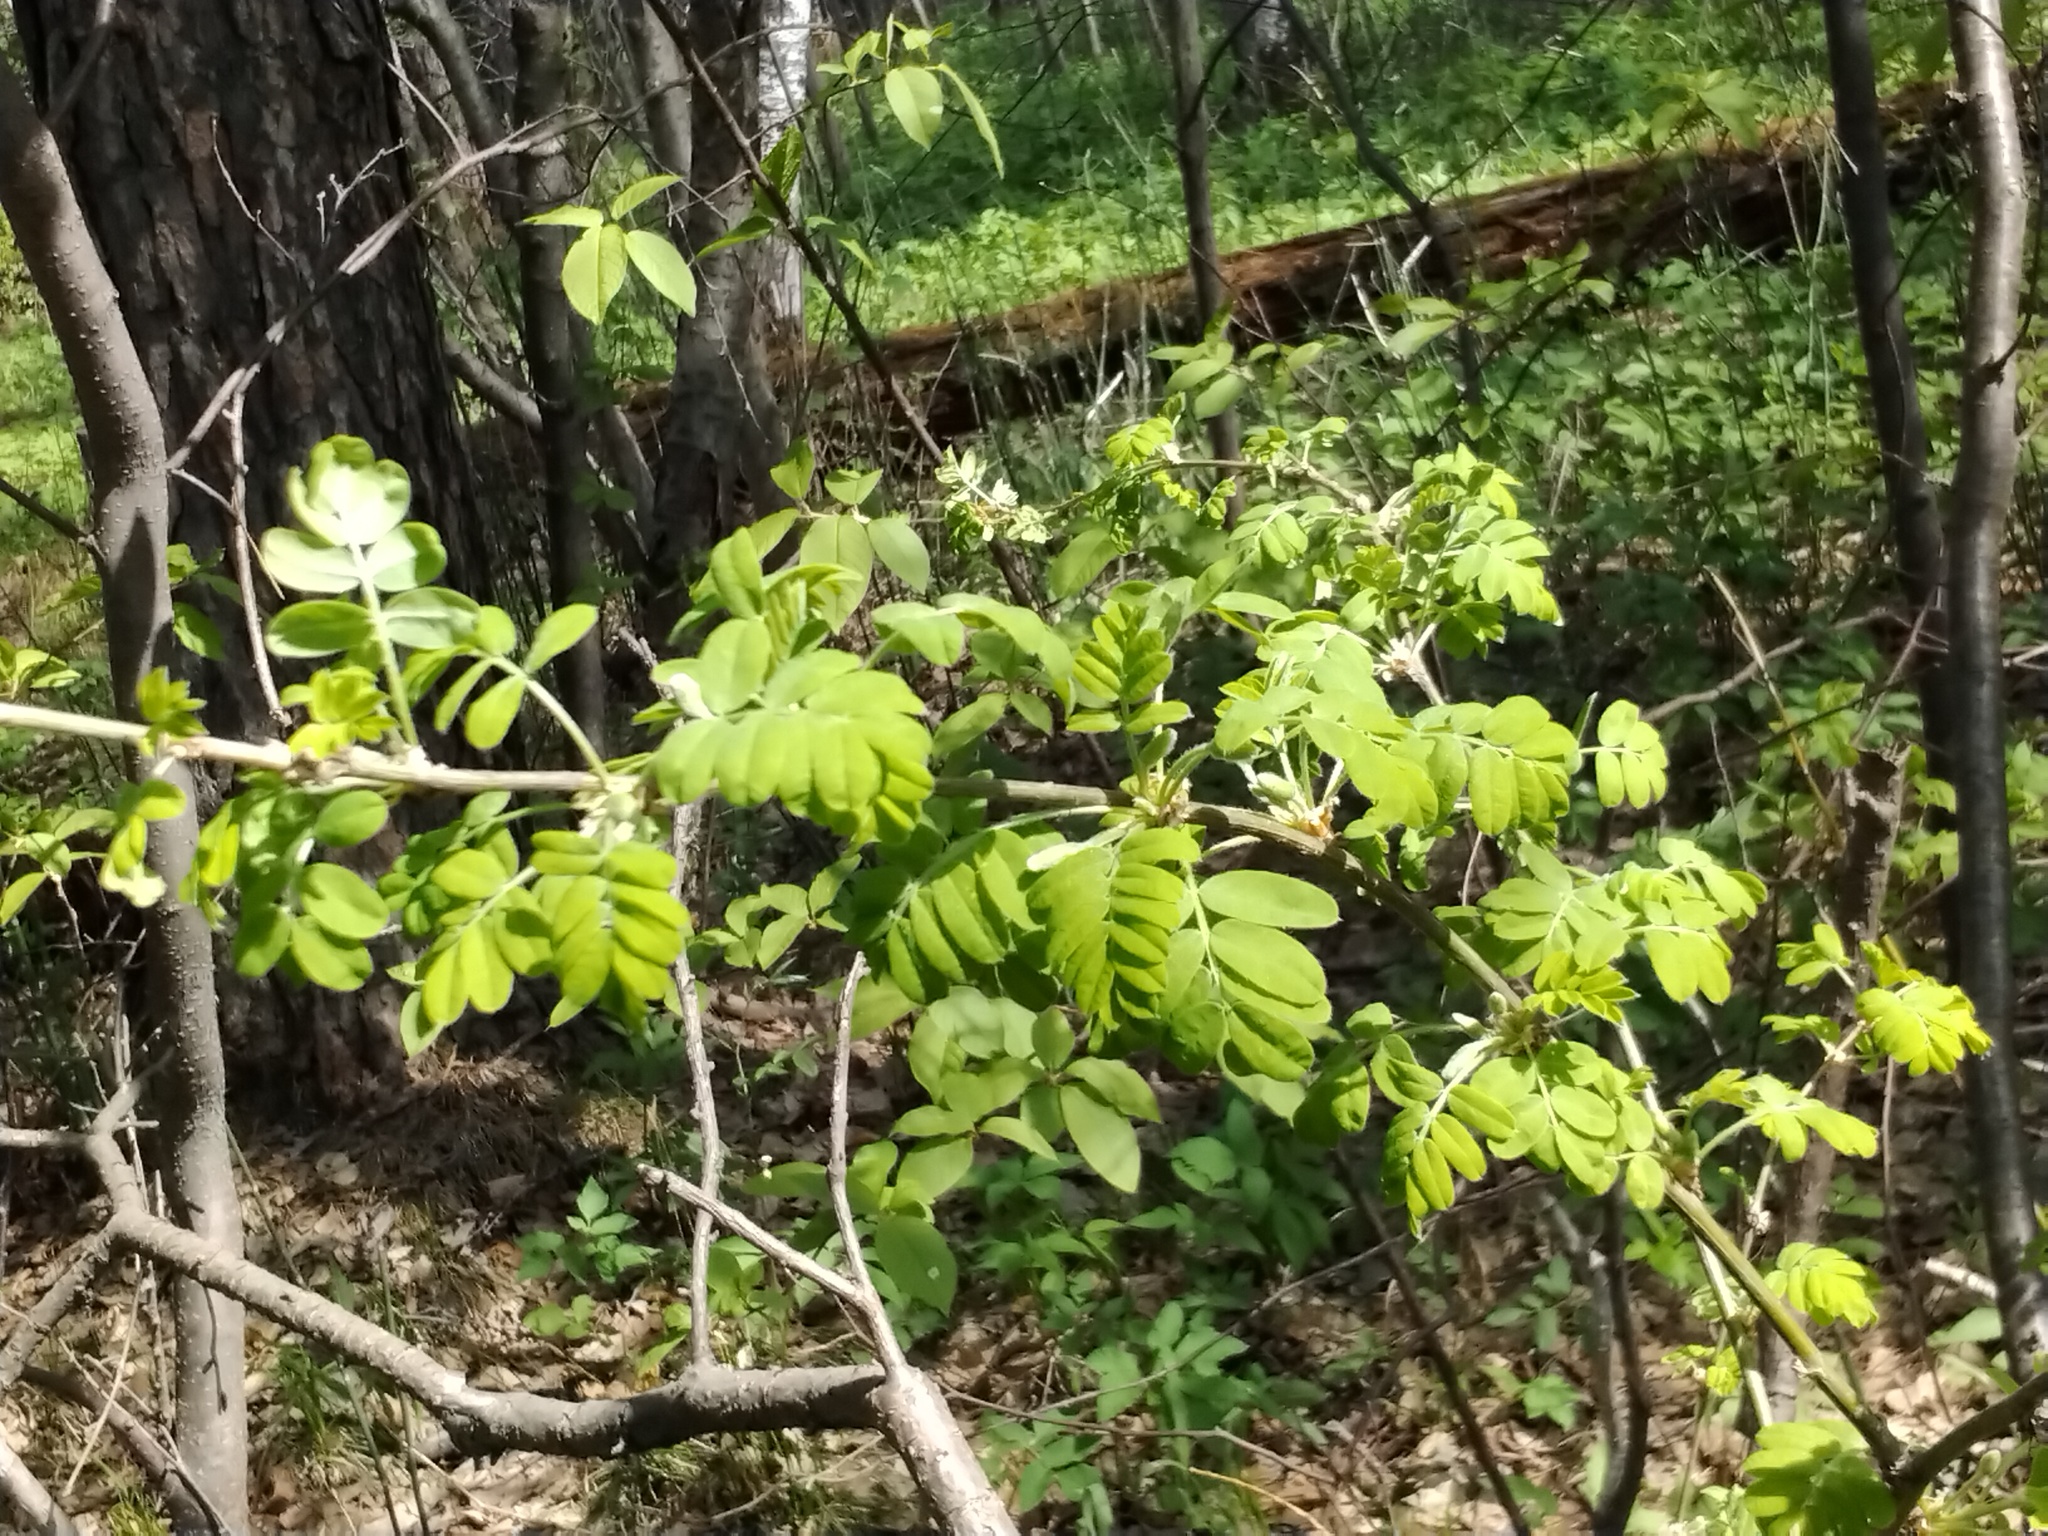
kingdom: Plantae
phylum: Tracheophyta
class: Magnoliopsida
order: Fabales
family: Fabaceae
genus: Caragana
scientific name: Caragana arborescens
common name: Siberian peashrub
